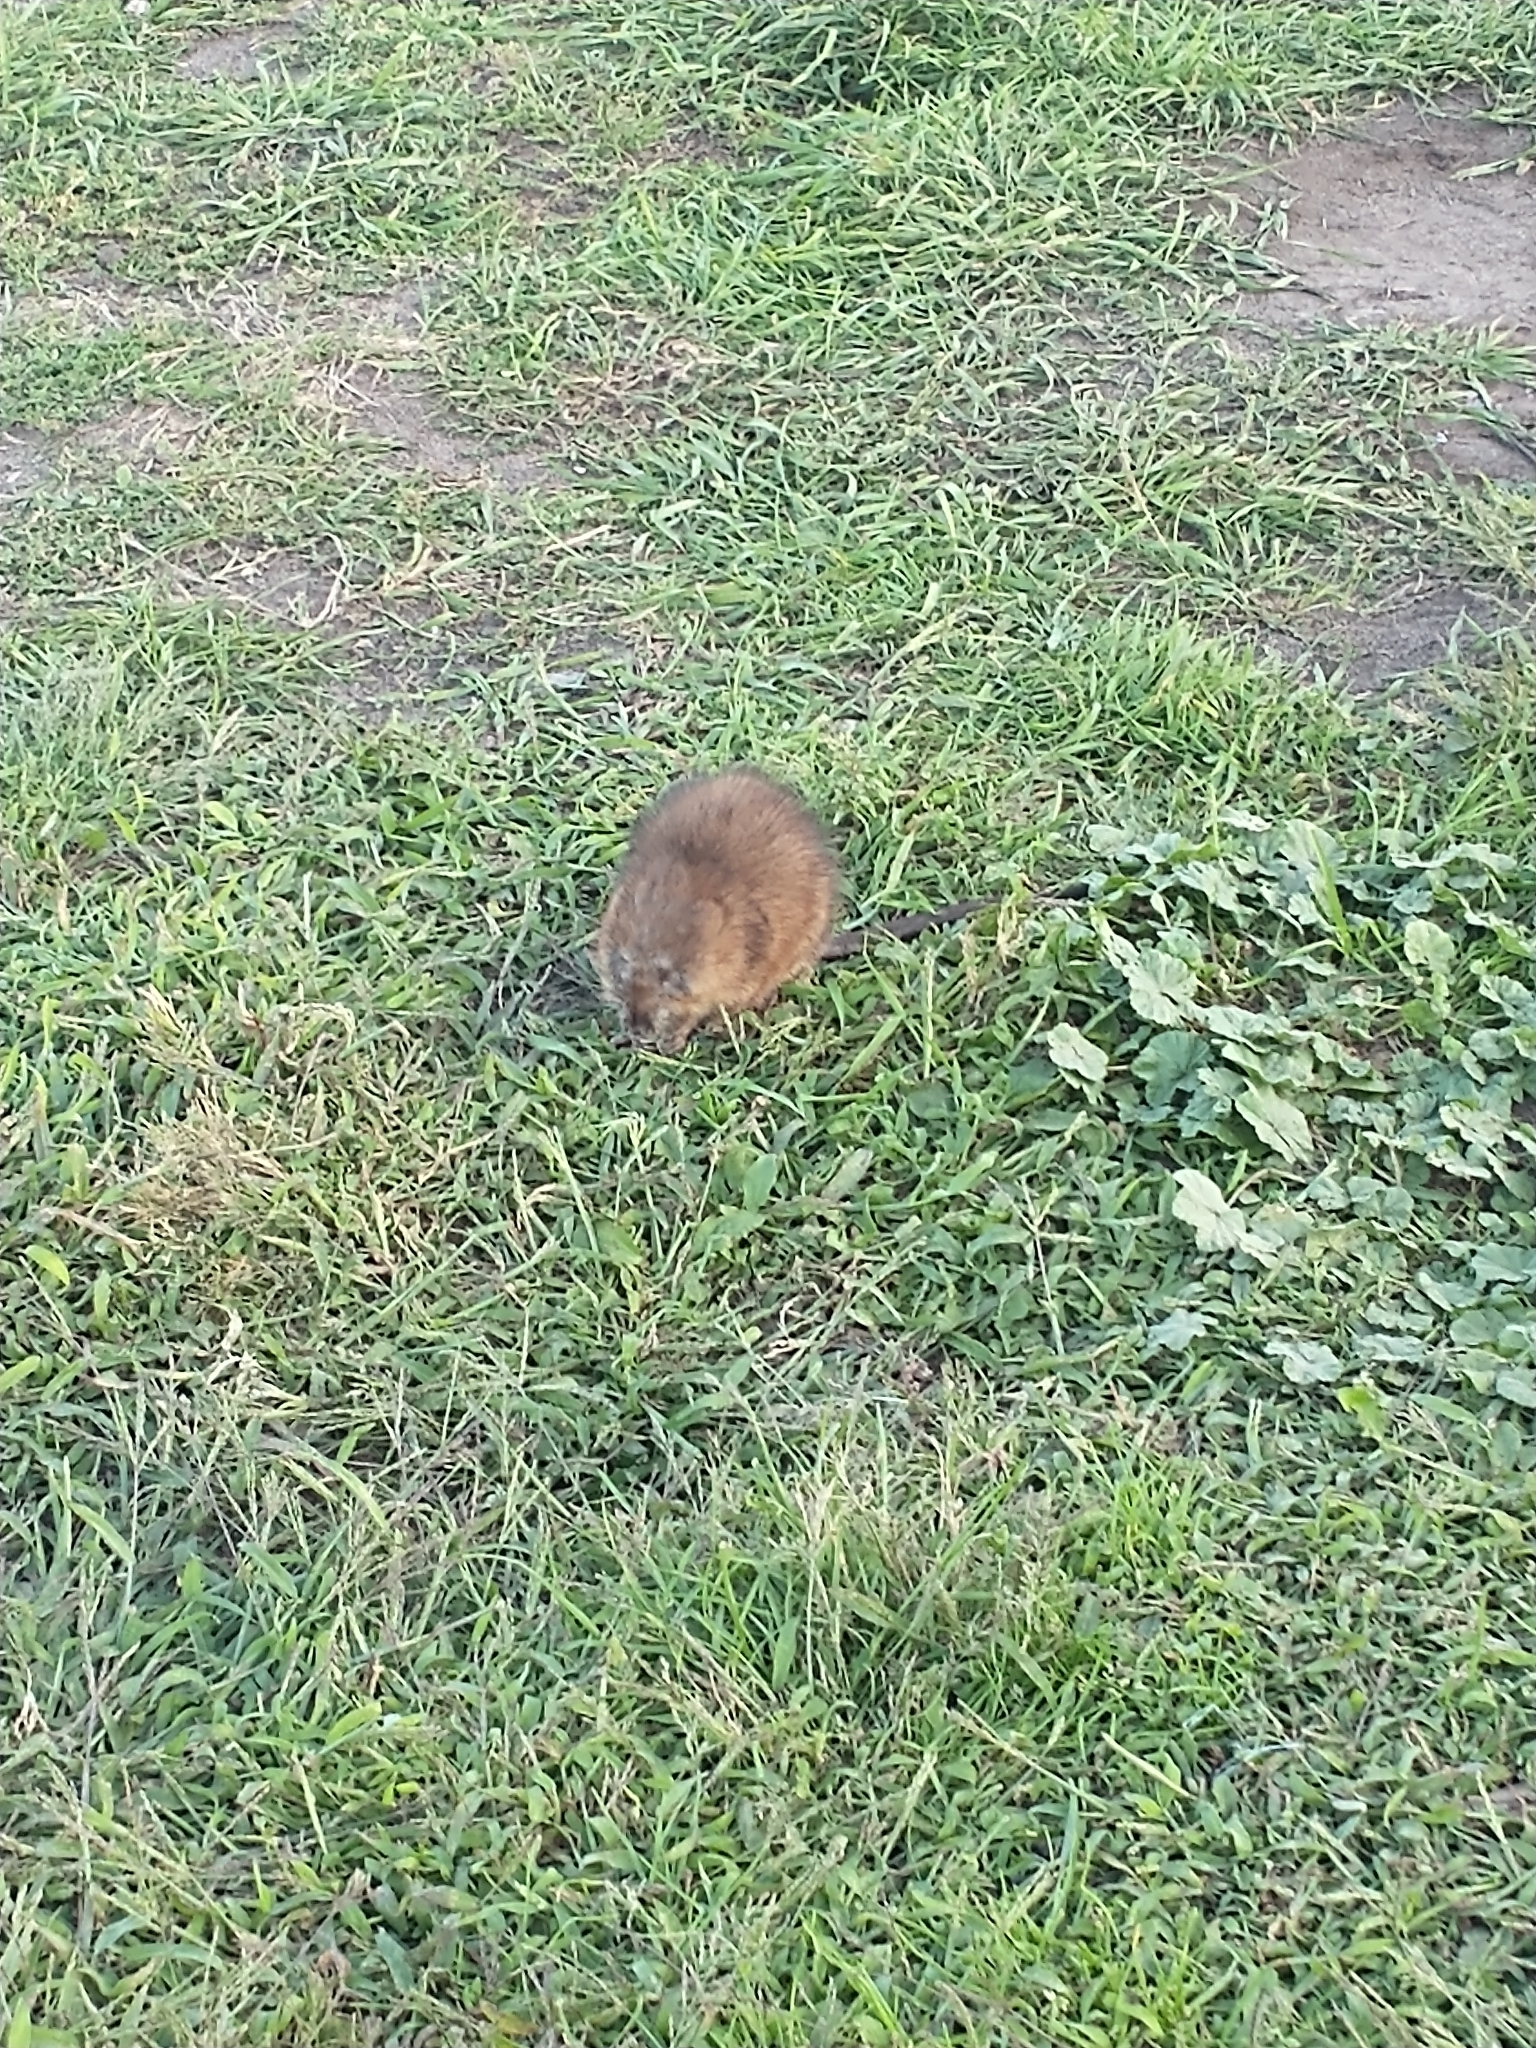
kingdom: Animalia
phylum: Chordata
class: Mammalia
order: Rodentia
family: Cricetidae
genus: Ondatra
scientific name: Ondatra zibethicus
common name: Muskrat
